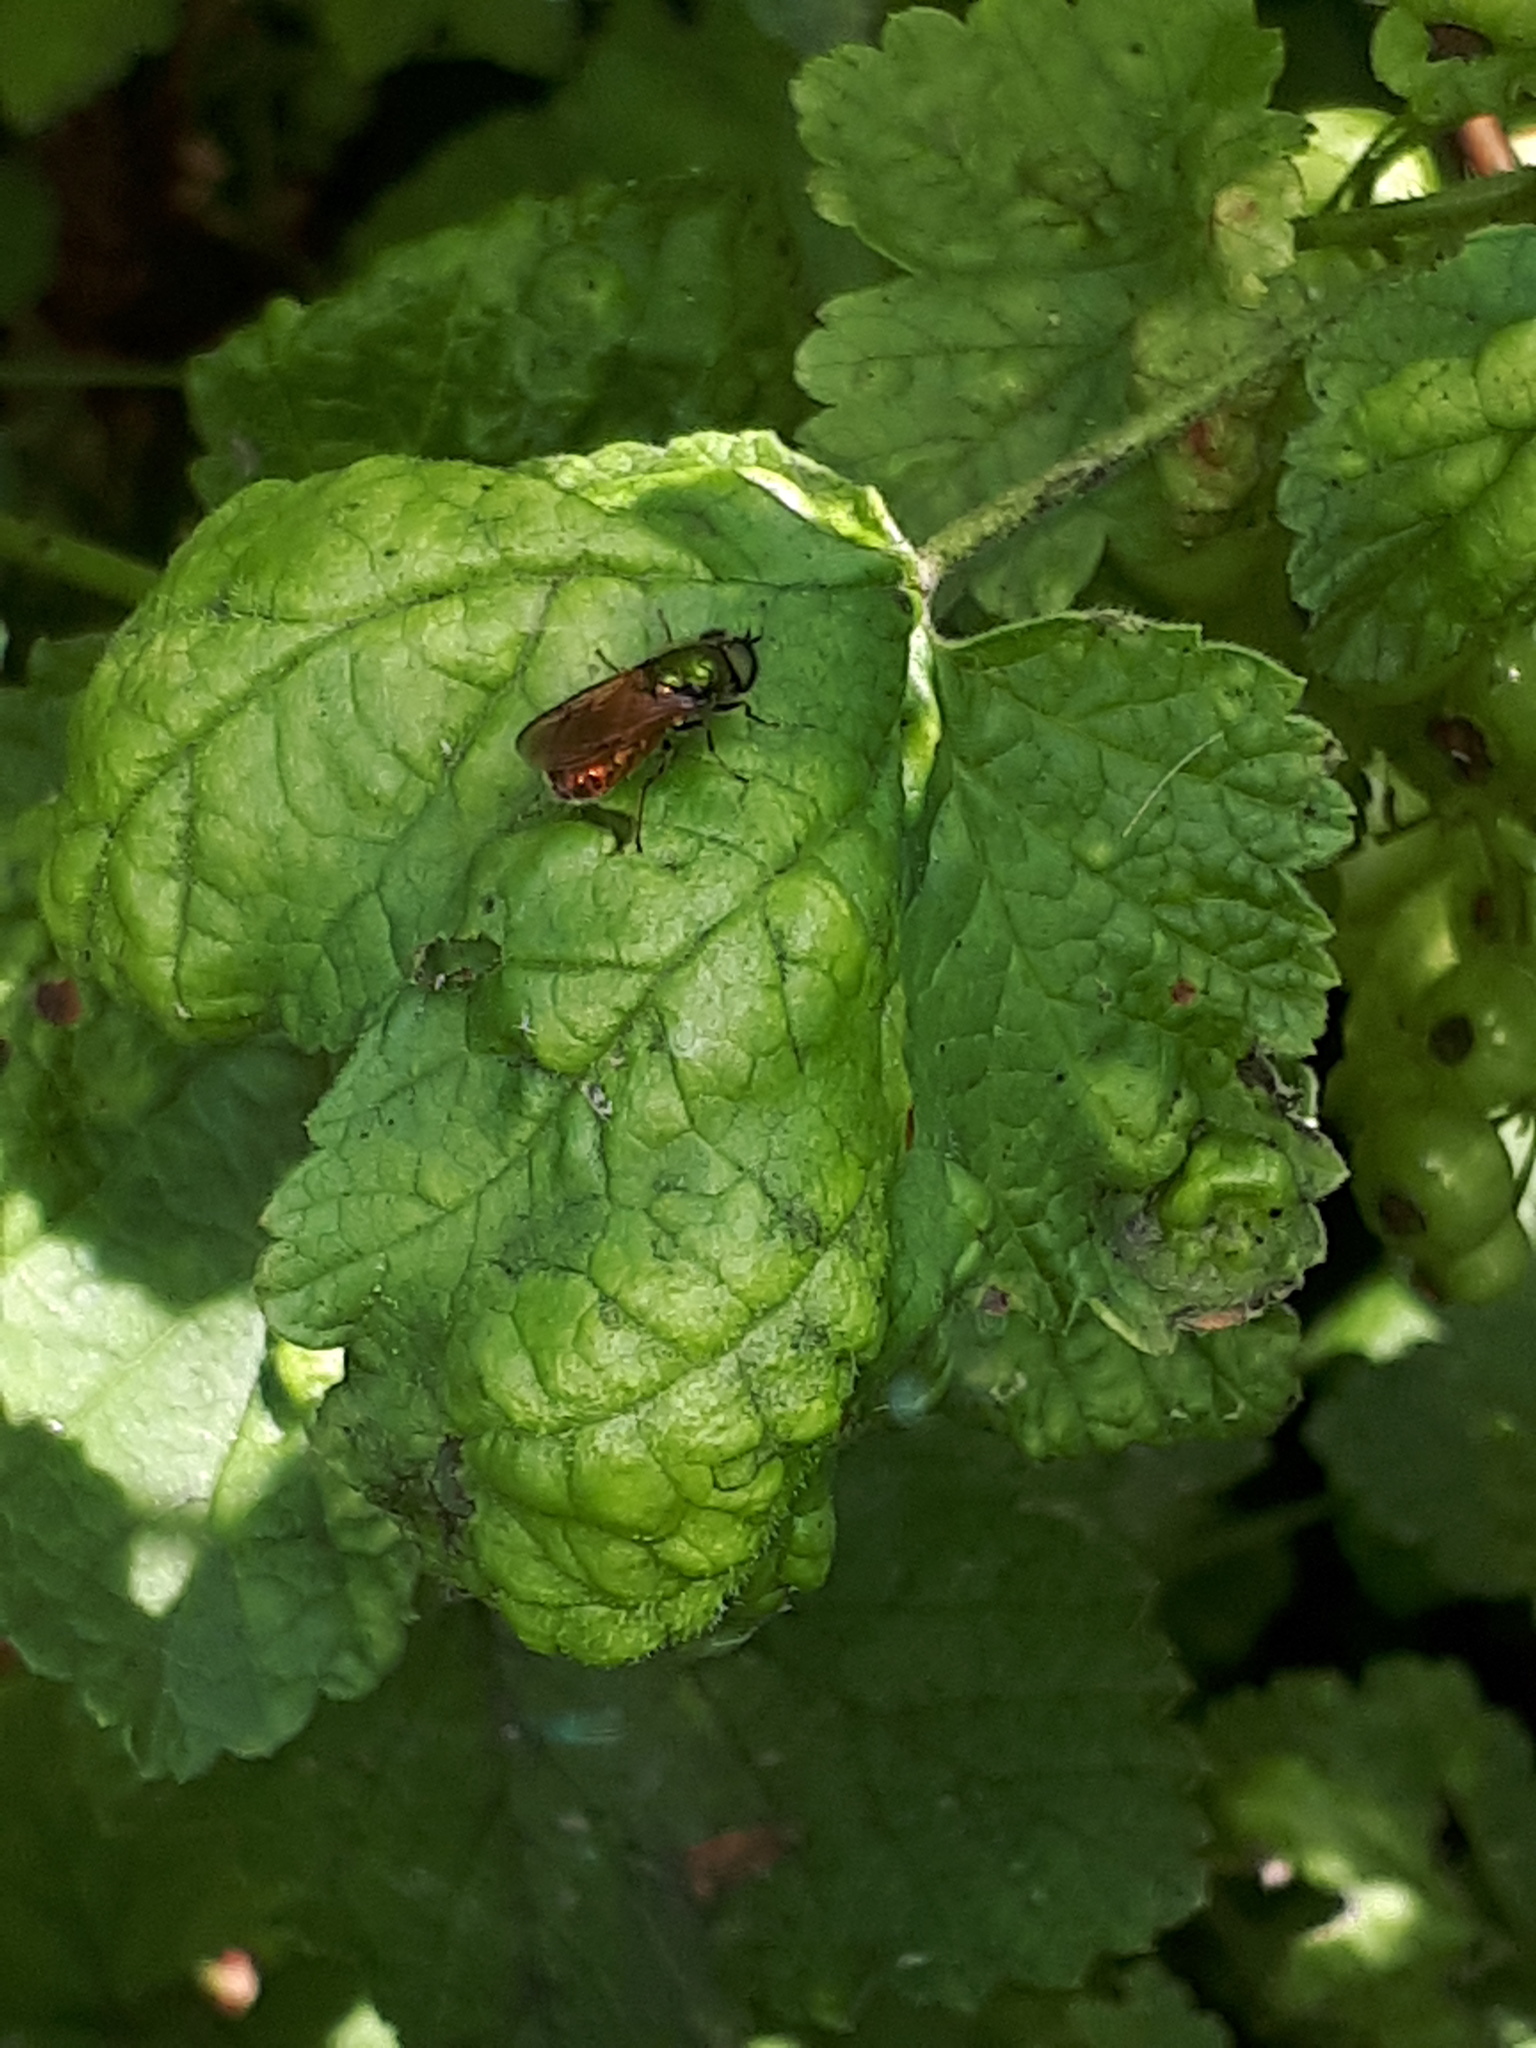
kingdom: Animalia
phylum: Arthropoda
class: Insecta
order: Diptera
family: Stratiomyidae
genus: Chloromyia
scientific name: Chloromyia formosa
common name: Soldier fly
